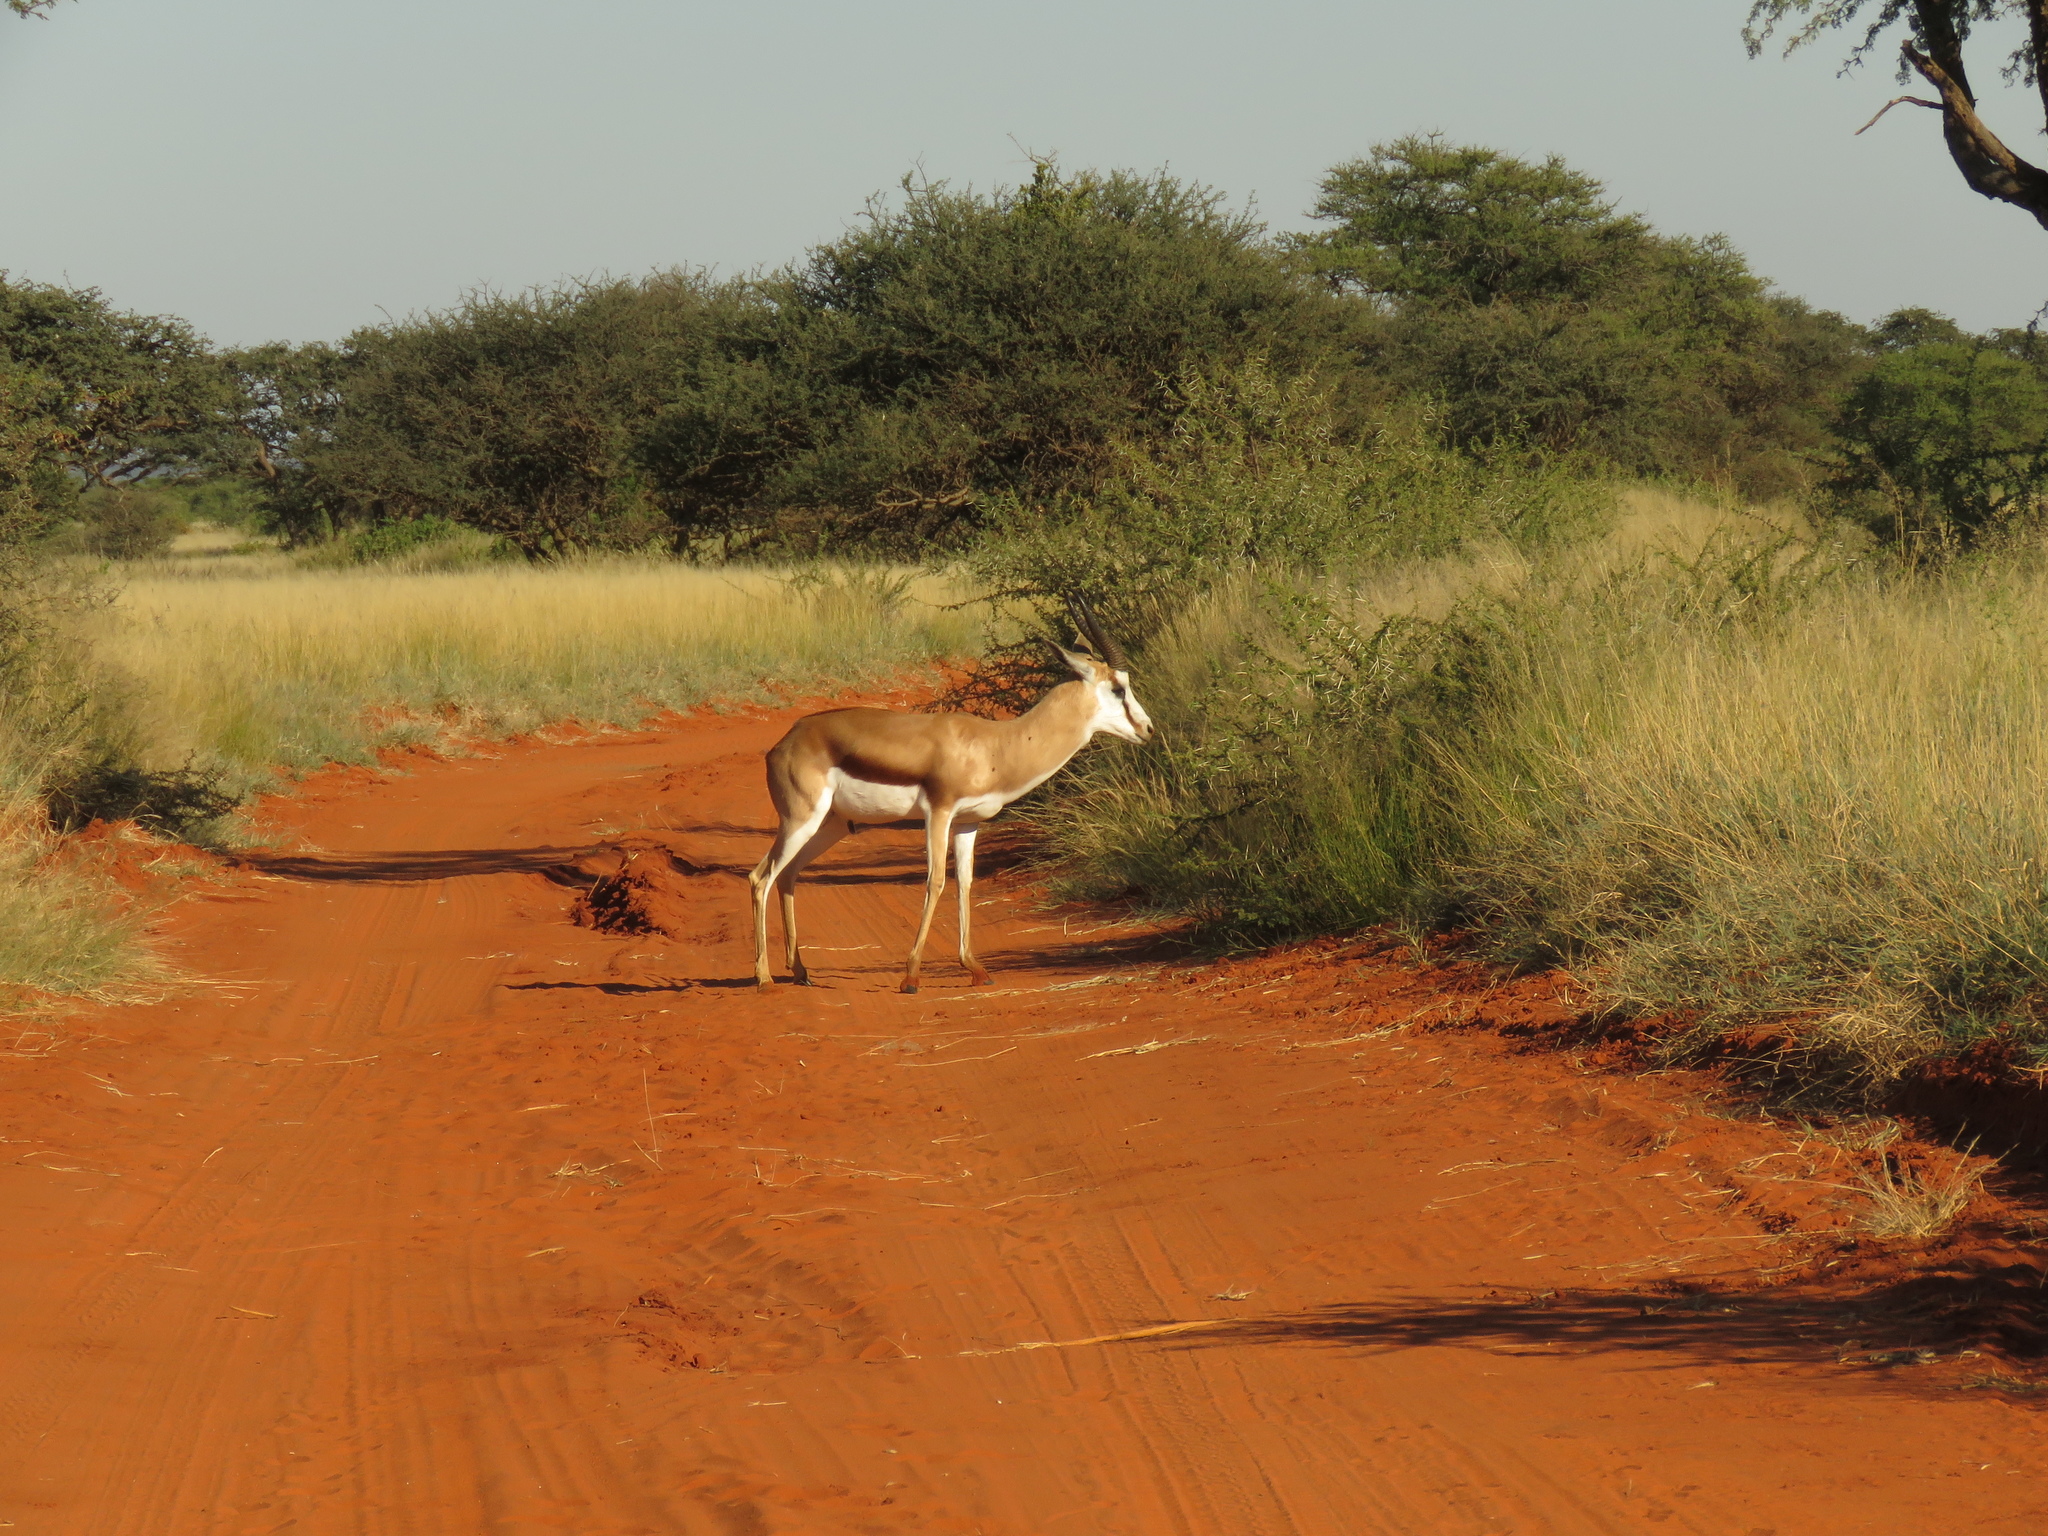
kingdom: Animalia
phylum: Chordata
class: Mammalia
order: Artiodactyla
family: Bovidae
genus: Antidorcas
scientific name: Antidorcas marsupialis
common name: Springbok
